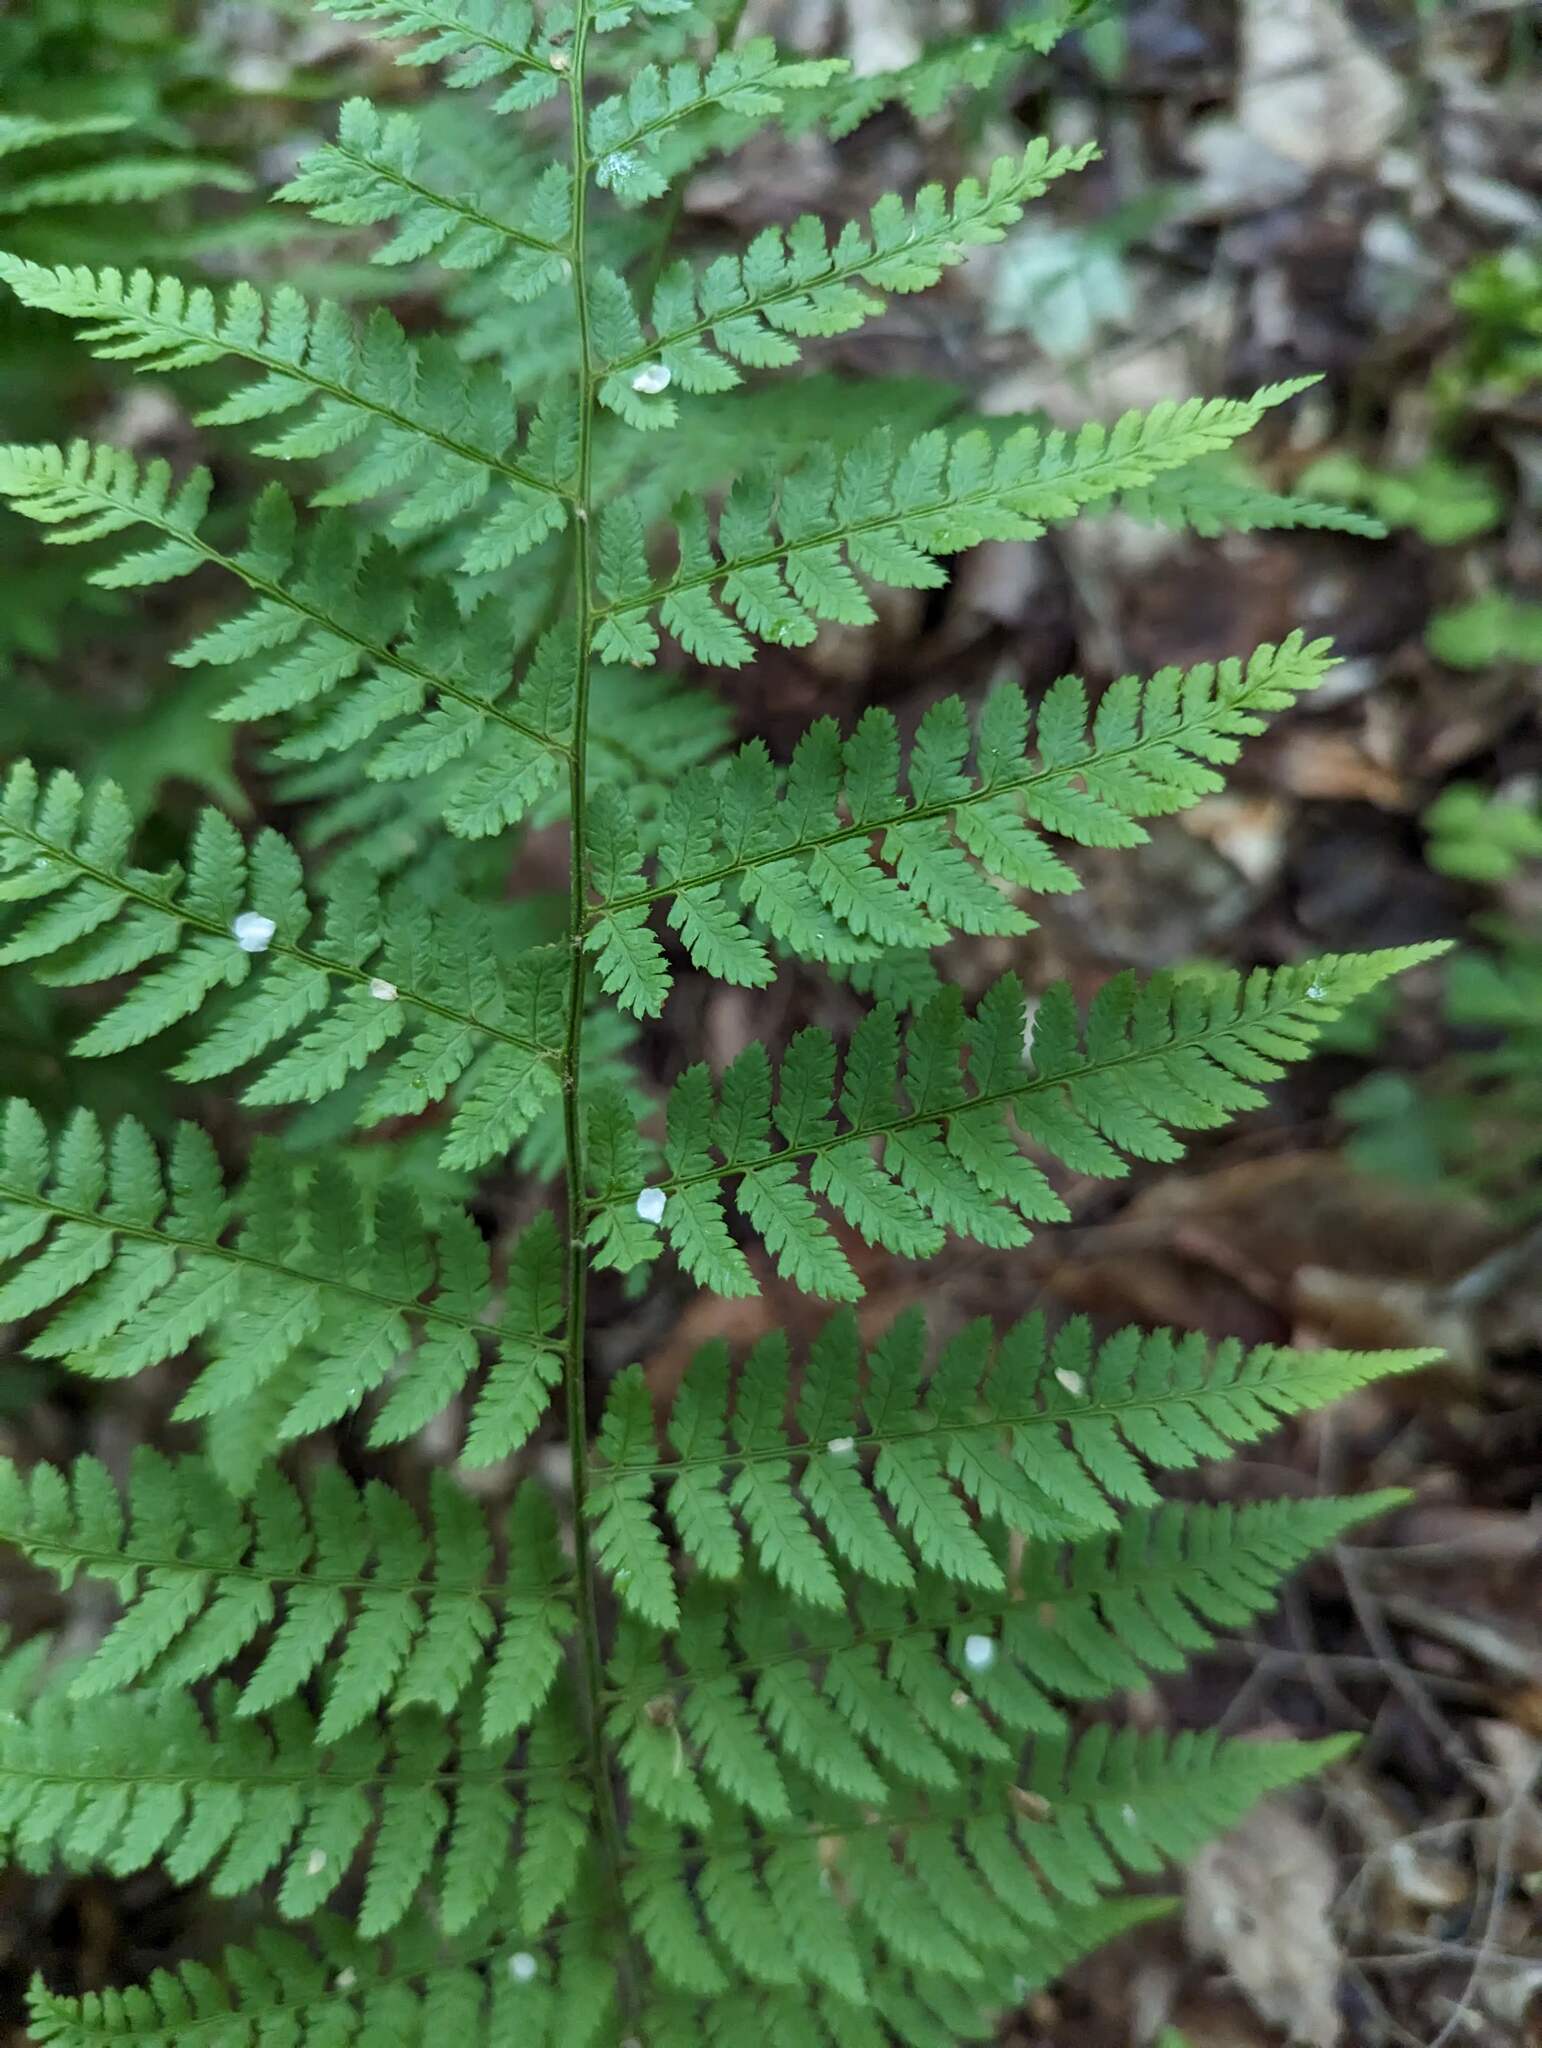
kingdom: Plantae
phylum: Tracheophyta
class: Polypodiopsida
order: Polypodiales
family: Dryopteridaceae
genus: Dryopteris
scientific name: Dryopteris intermedia
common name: Evergreen wood fern
